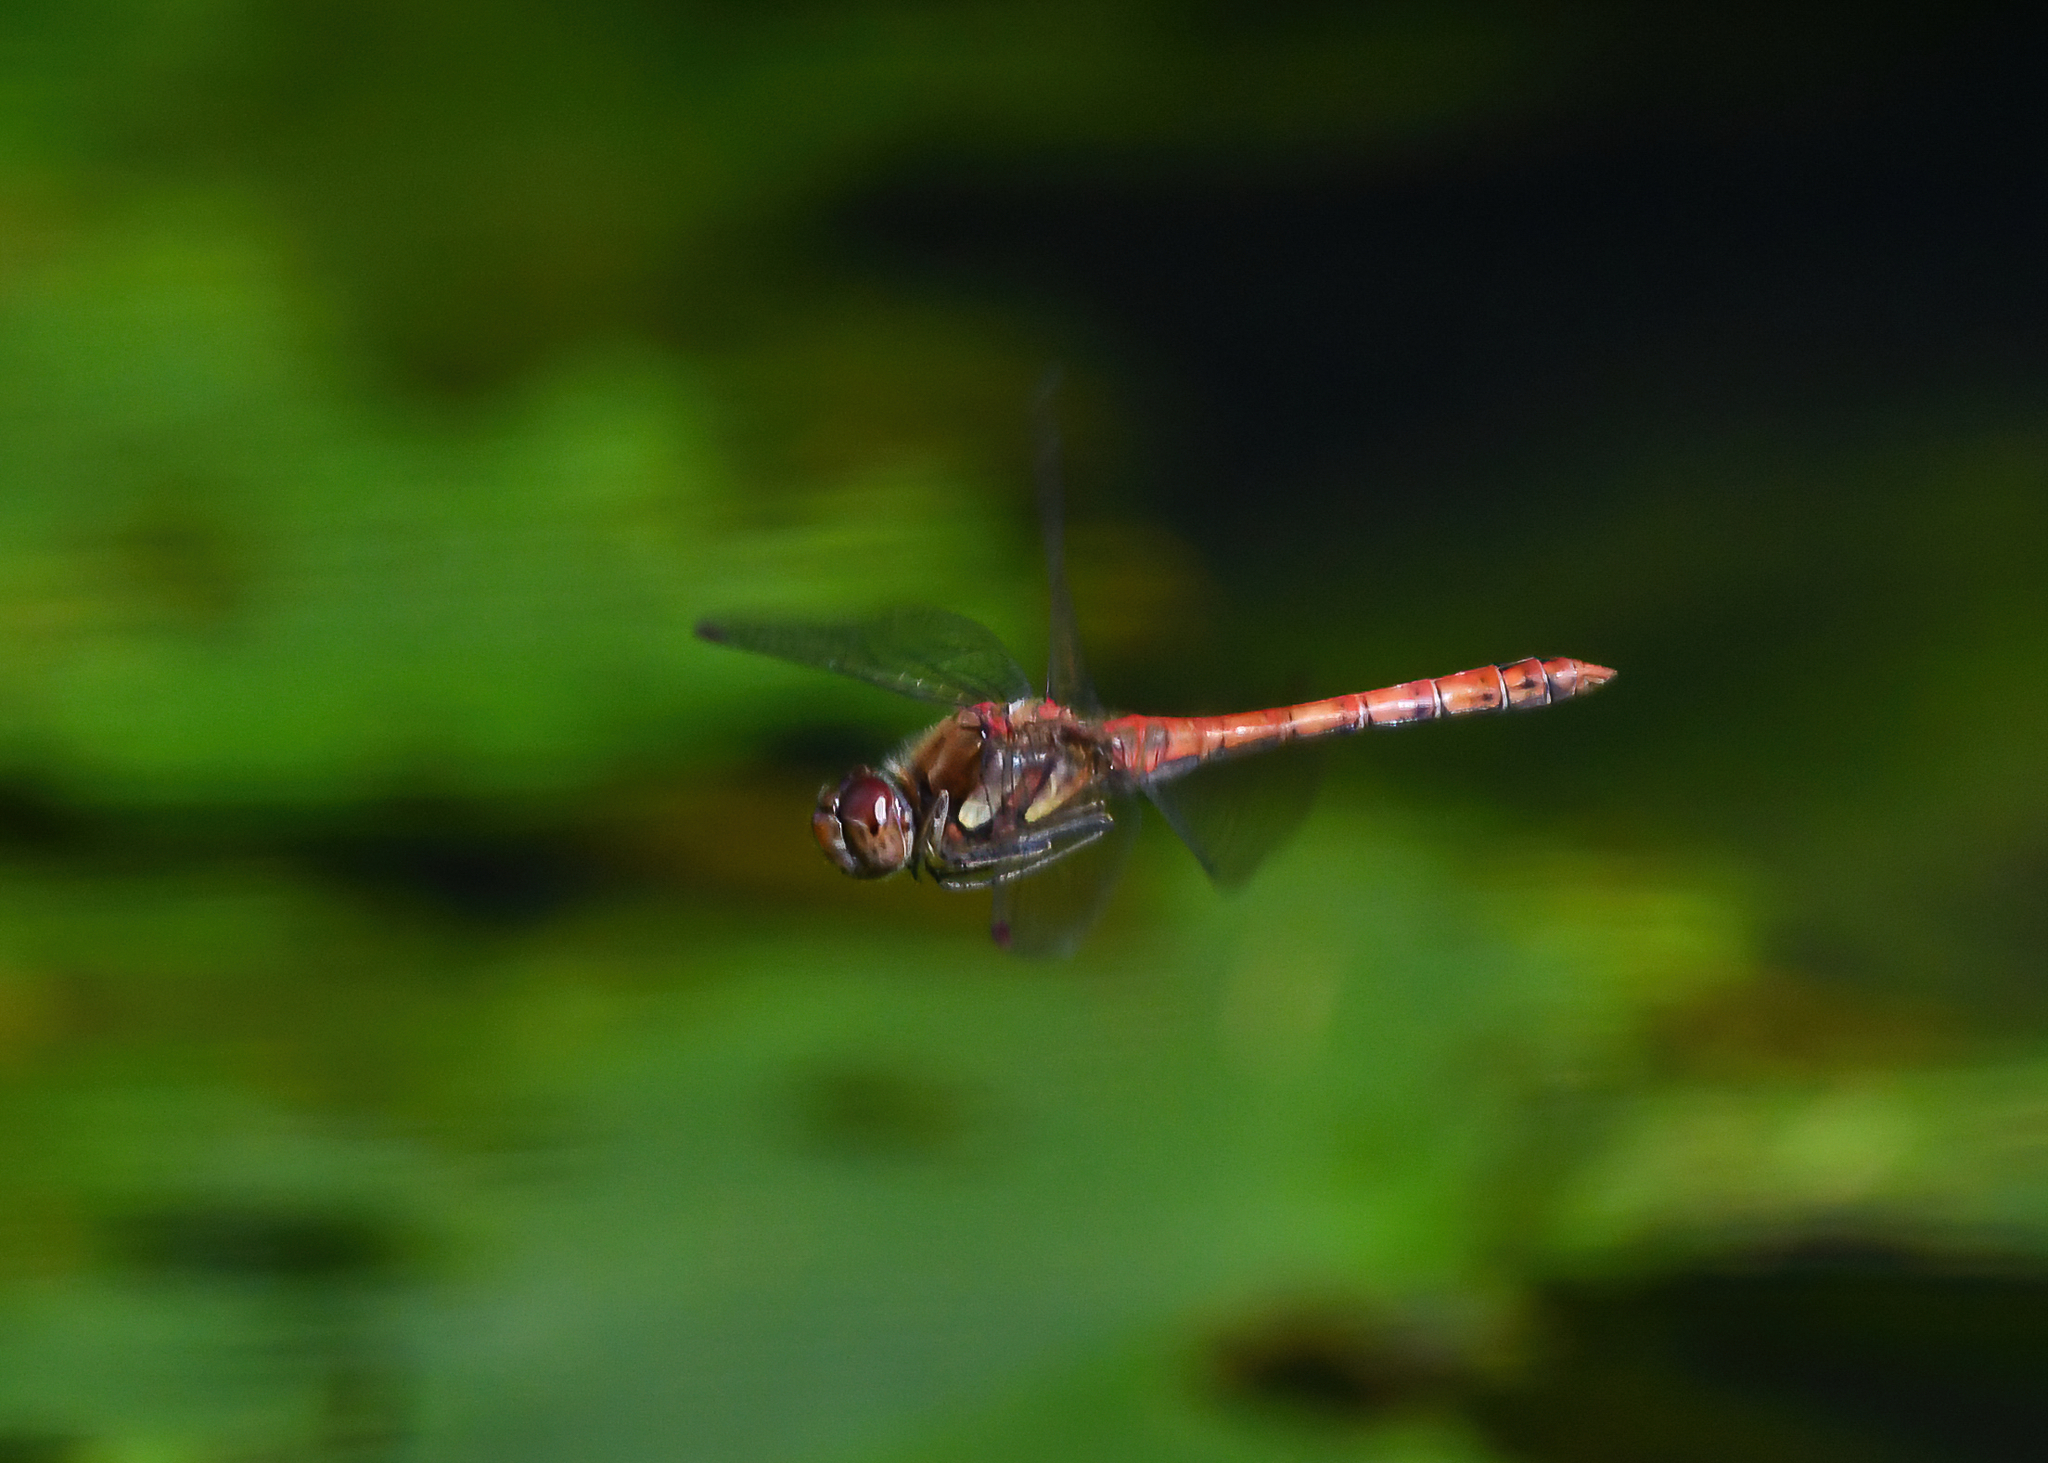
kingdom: Animalia
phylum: Arthropoda
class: Insecta
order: Odonata
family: Libellulidae
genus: Sympetrum
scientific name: Sympetrum striolatum
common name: Common darter
